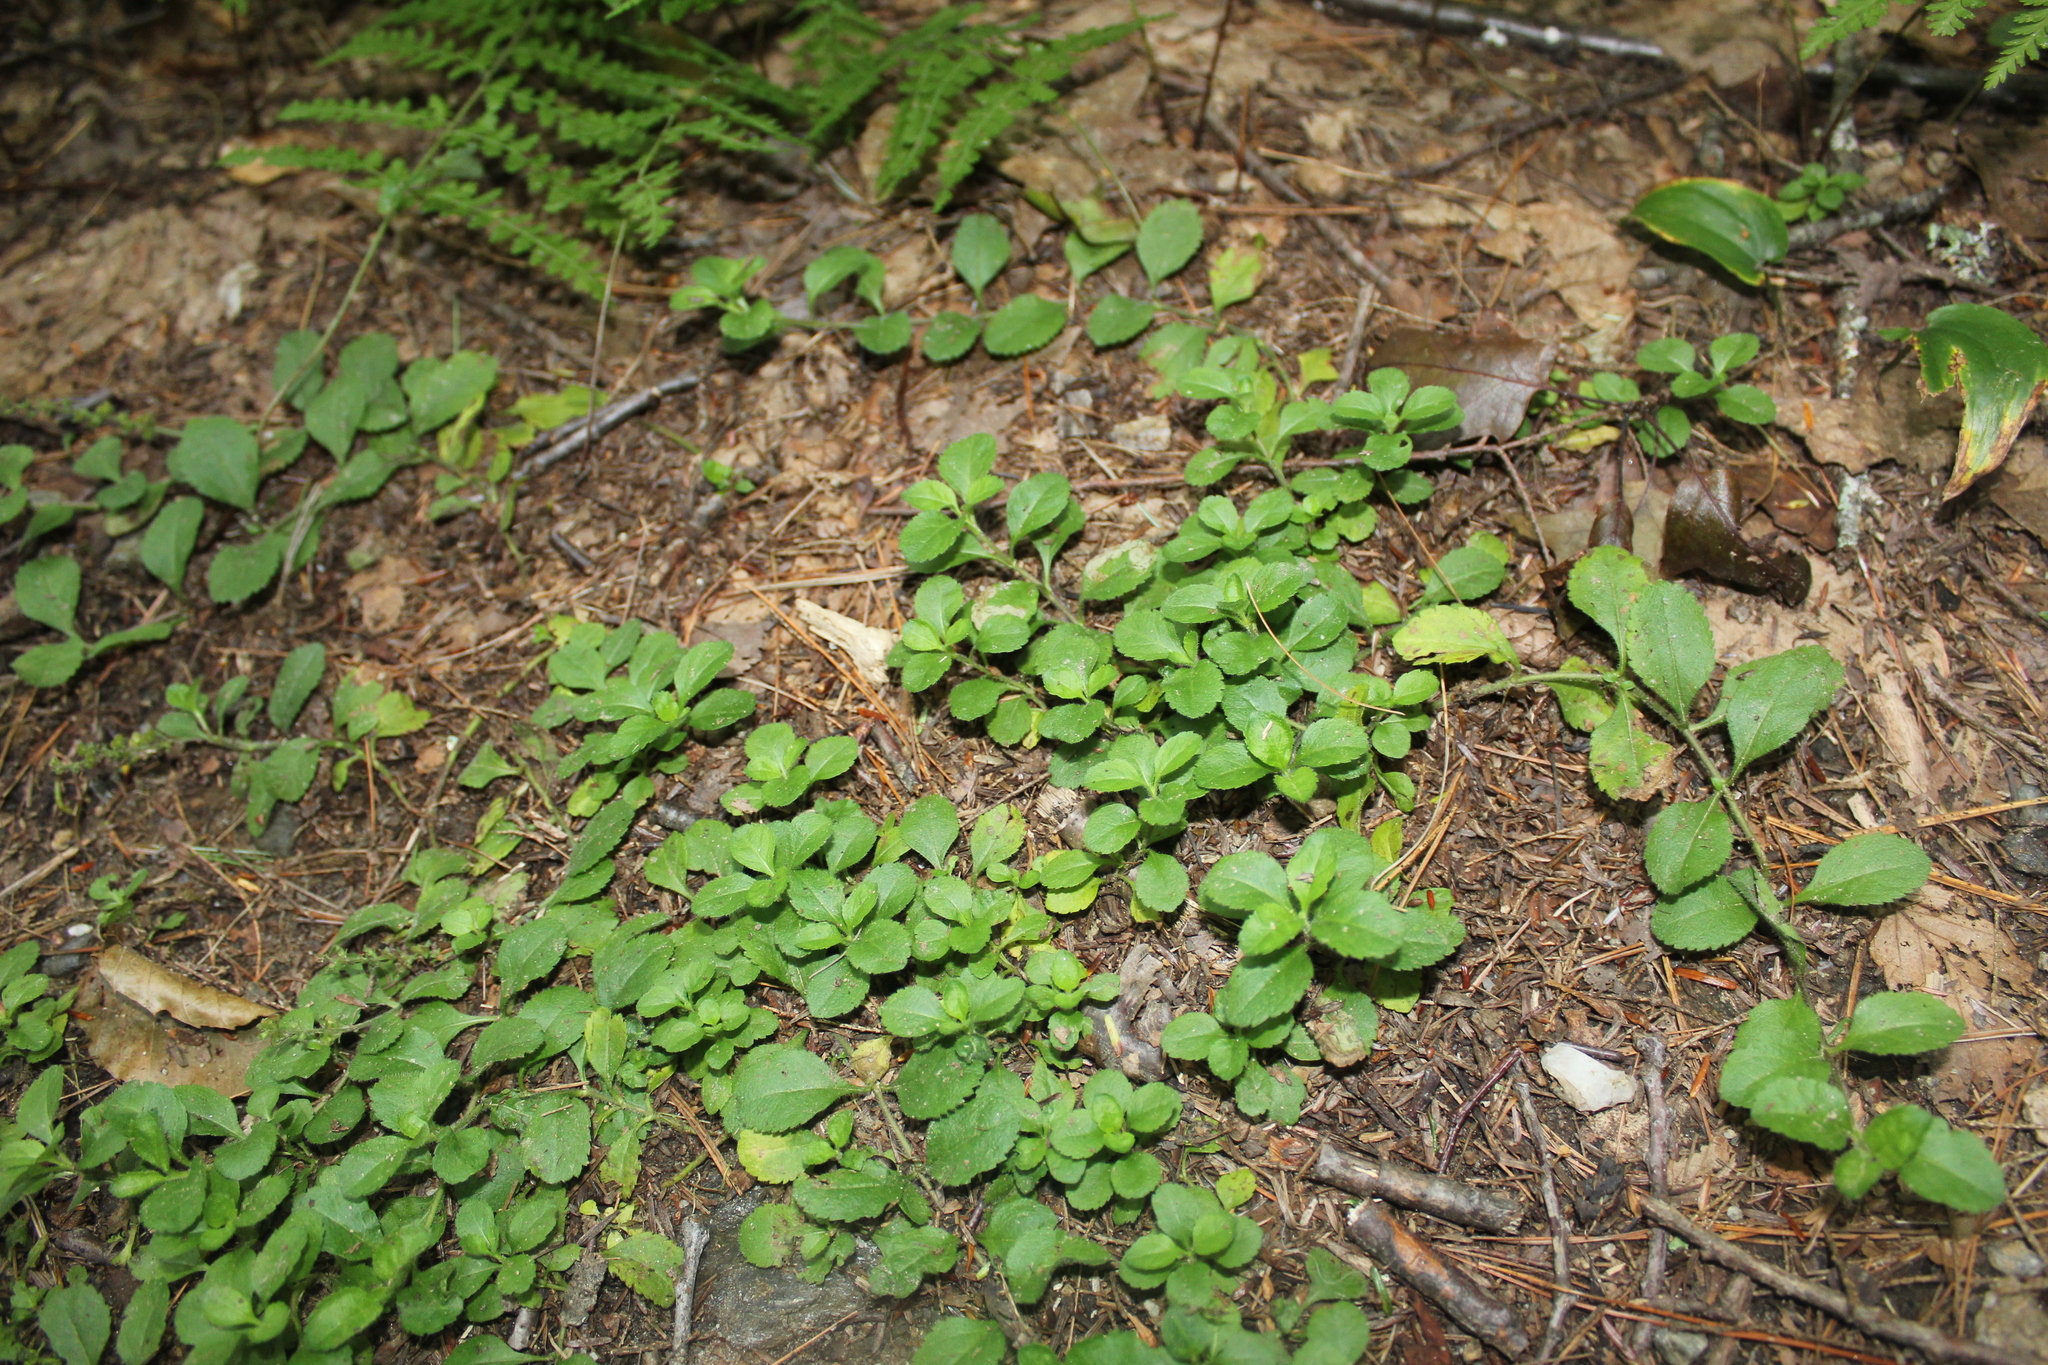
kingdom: Plantae
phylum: Tracheophyta
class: Magnoliopsida
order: Lamiales
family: Plantaginaceae
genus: Veronica
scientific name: Veronica officinalis
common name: Common speedwell
